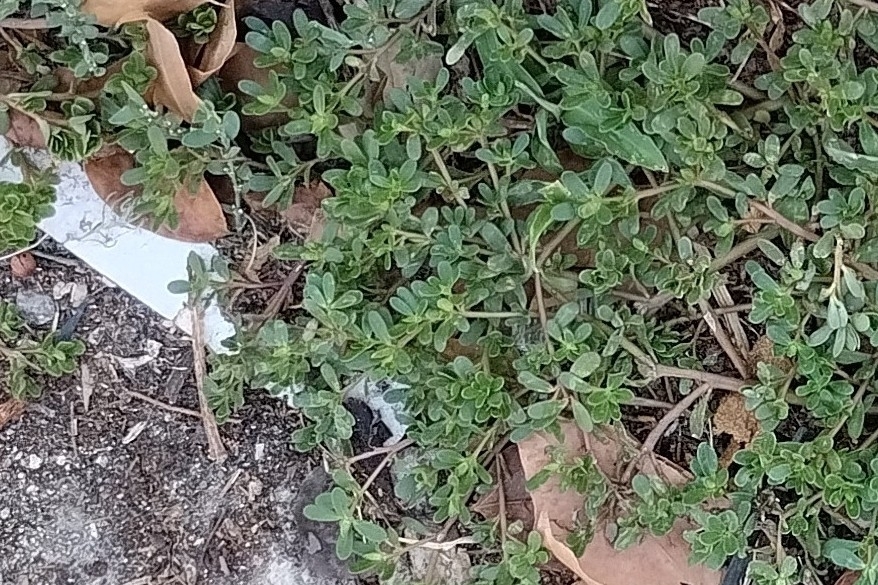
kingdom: Plantae
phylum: Tracheophyta
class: Magnoliopsida
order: Caryophyllales
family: Portulacaceae
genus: Portulaca
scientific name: Portulaca oleracea
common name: Common purslane
